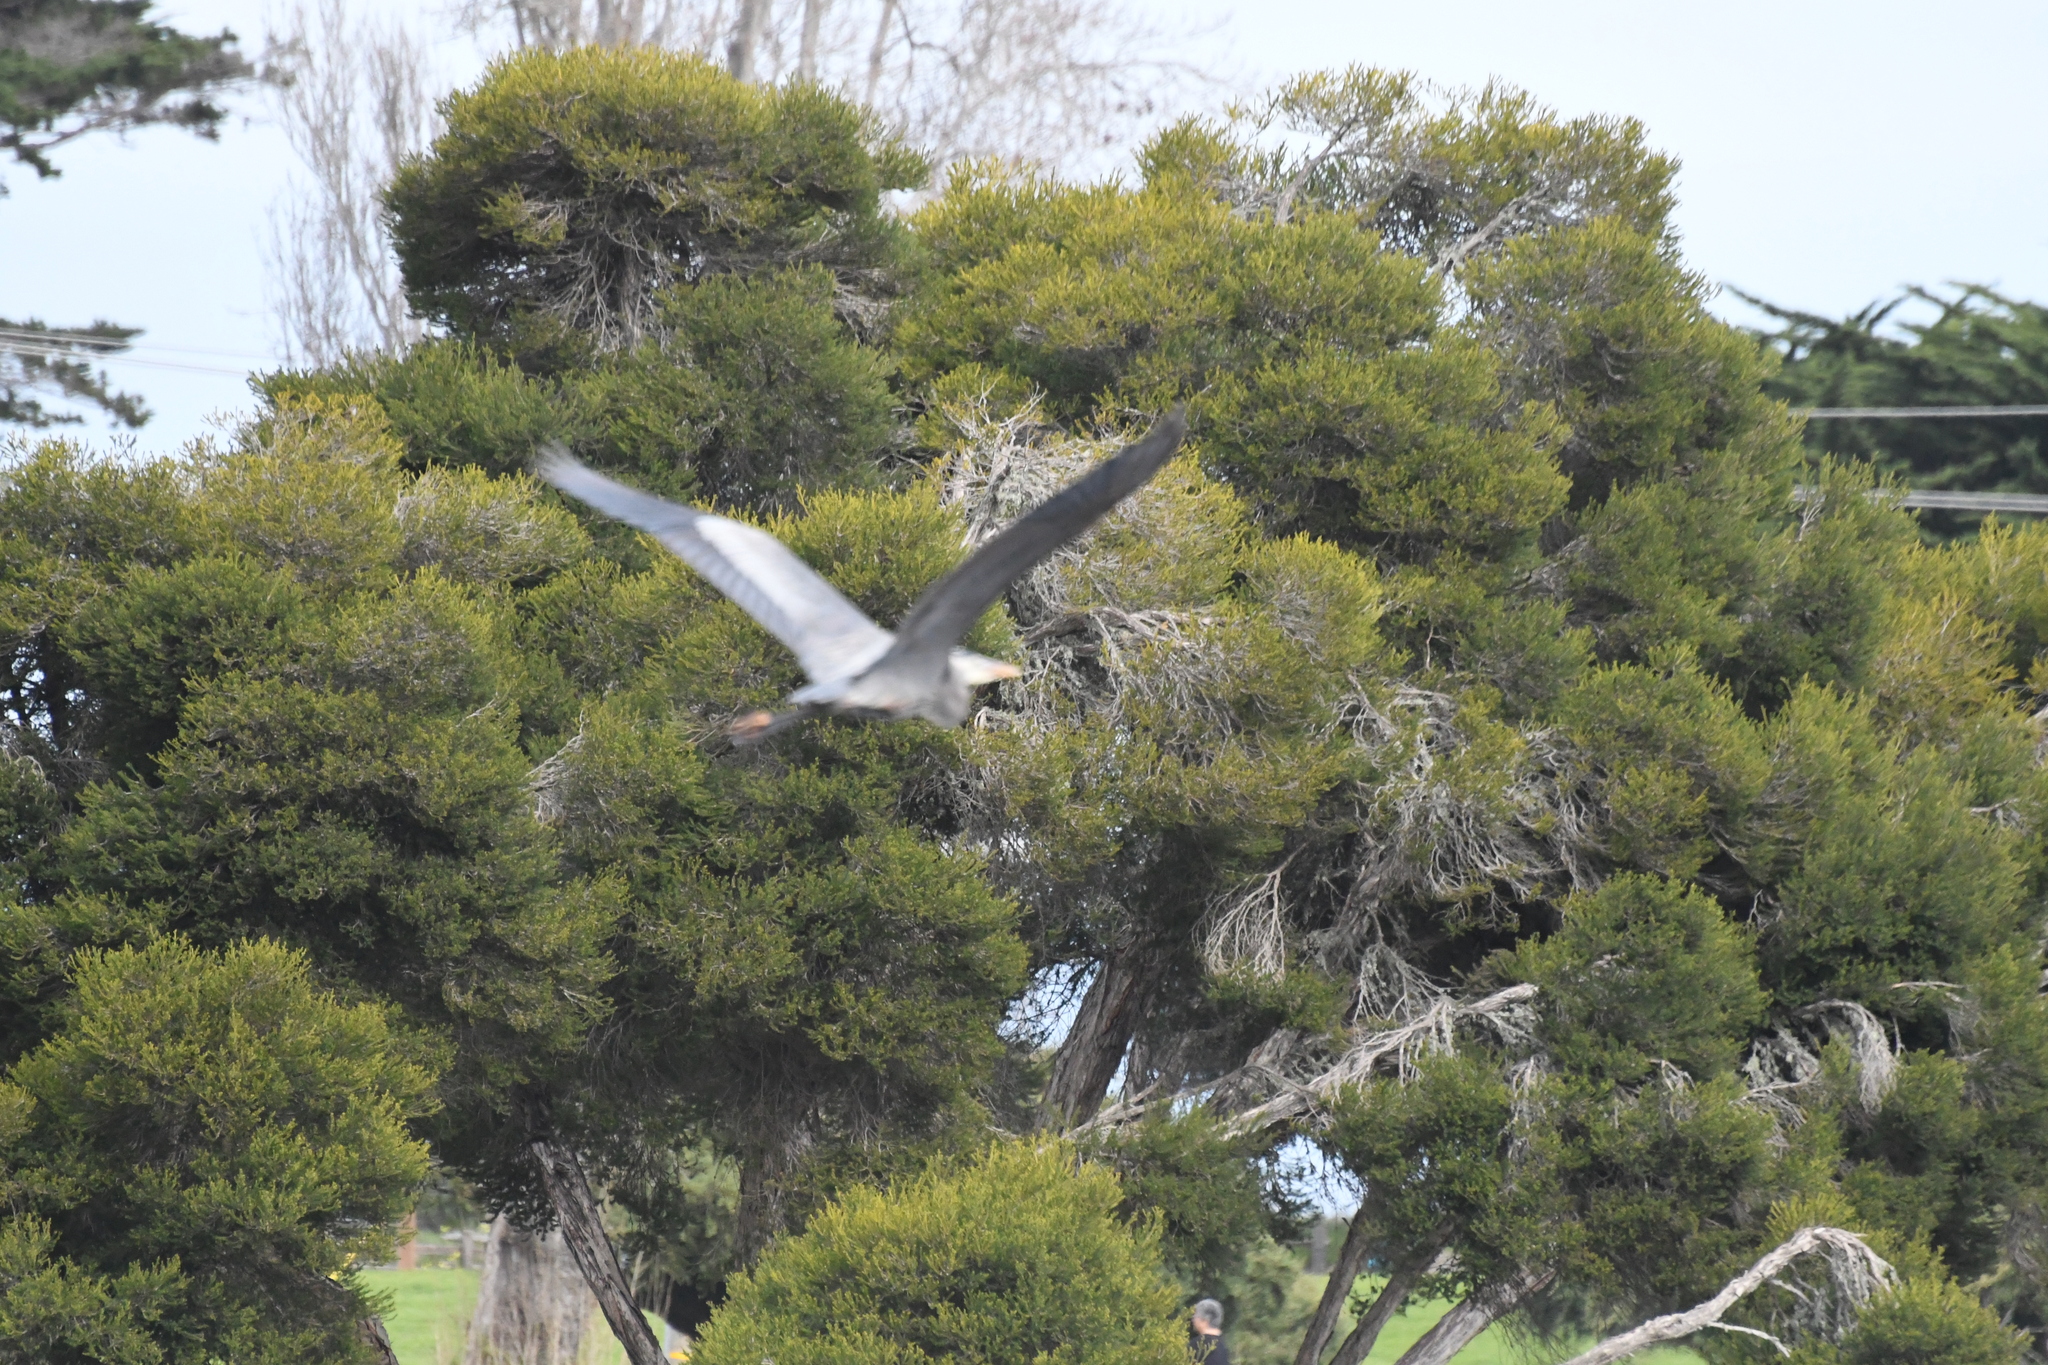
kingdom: Animalia
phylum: Chordata
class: Aves
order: Pelecaniformes
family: Ardeidae
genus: Ardea
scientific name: Ardea herodias
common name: Great blue heron
